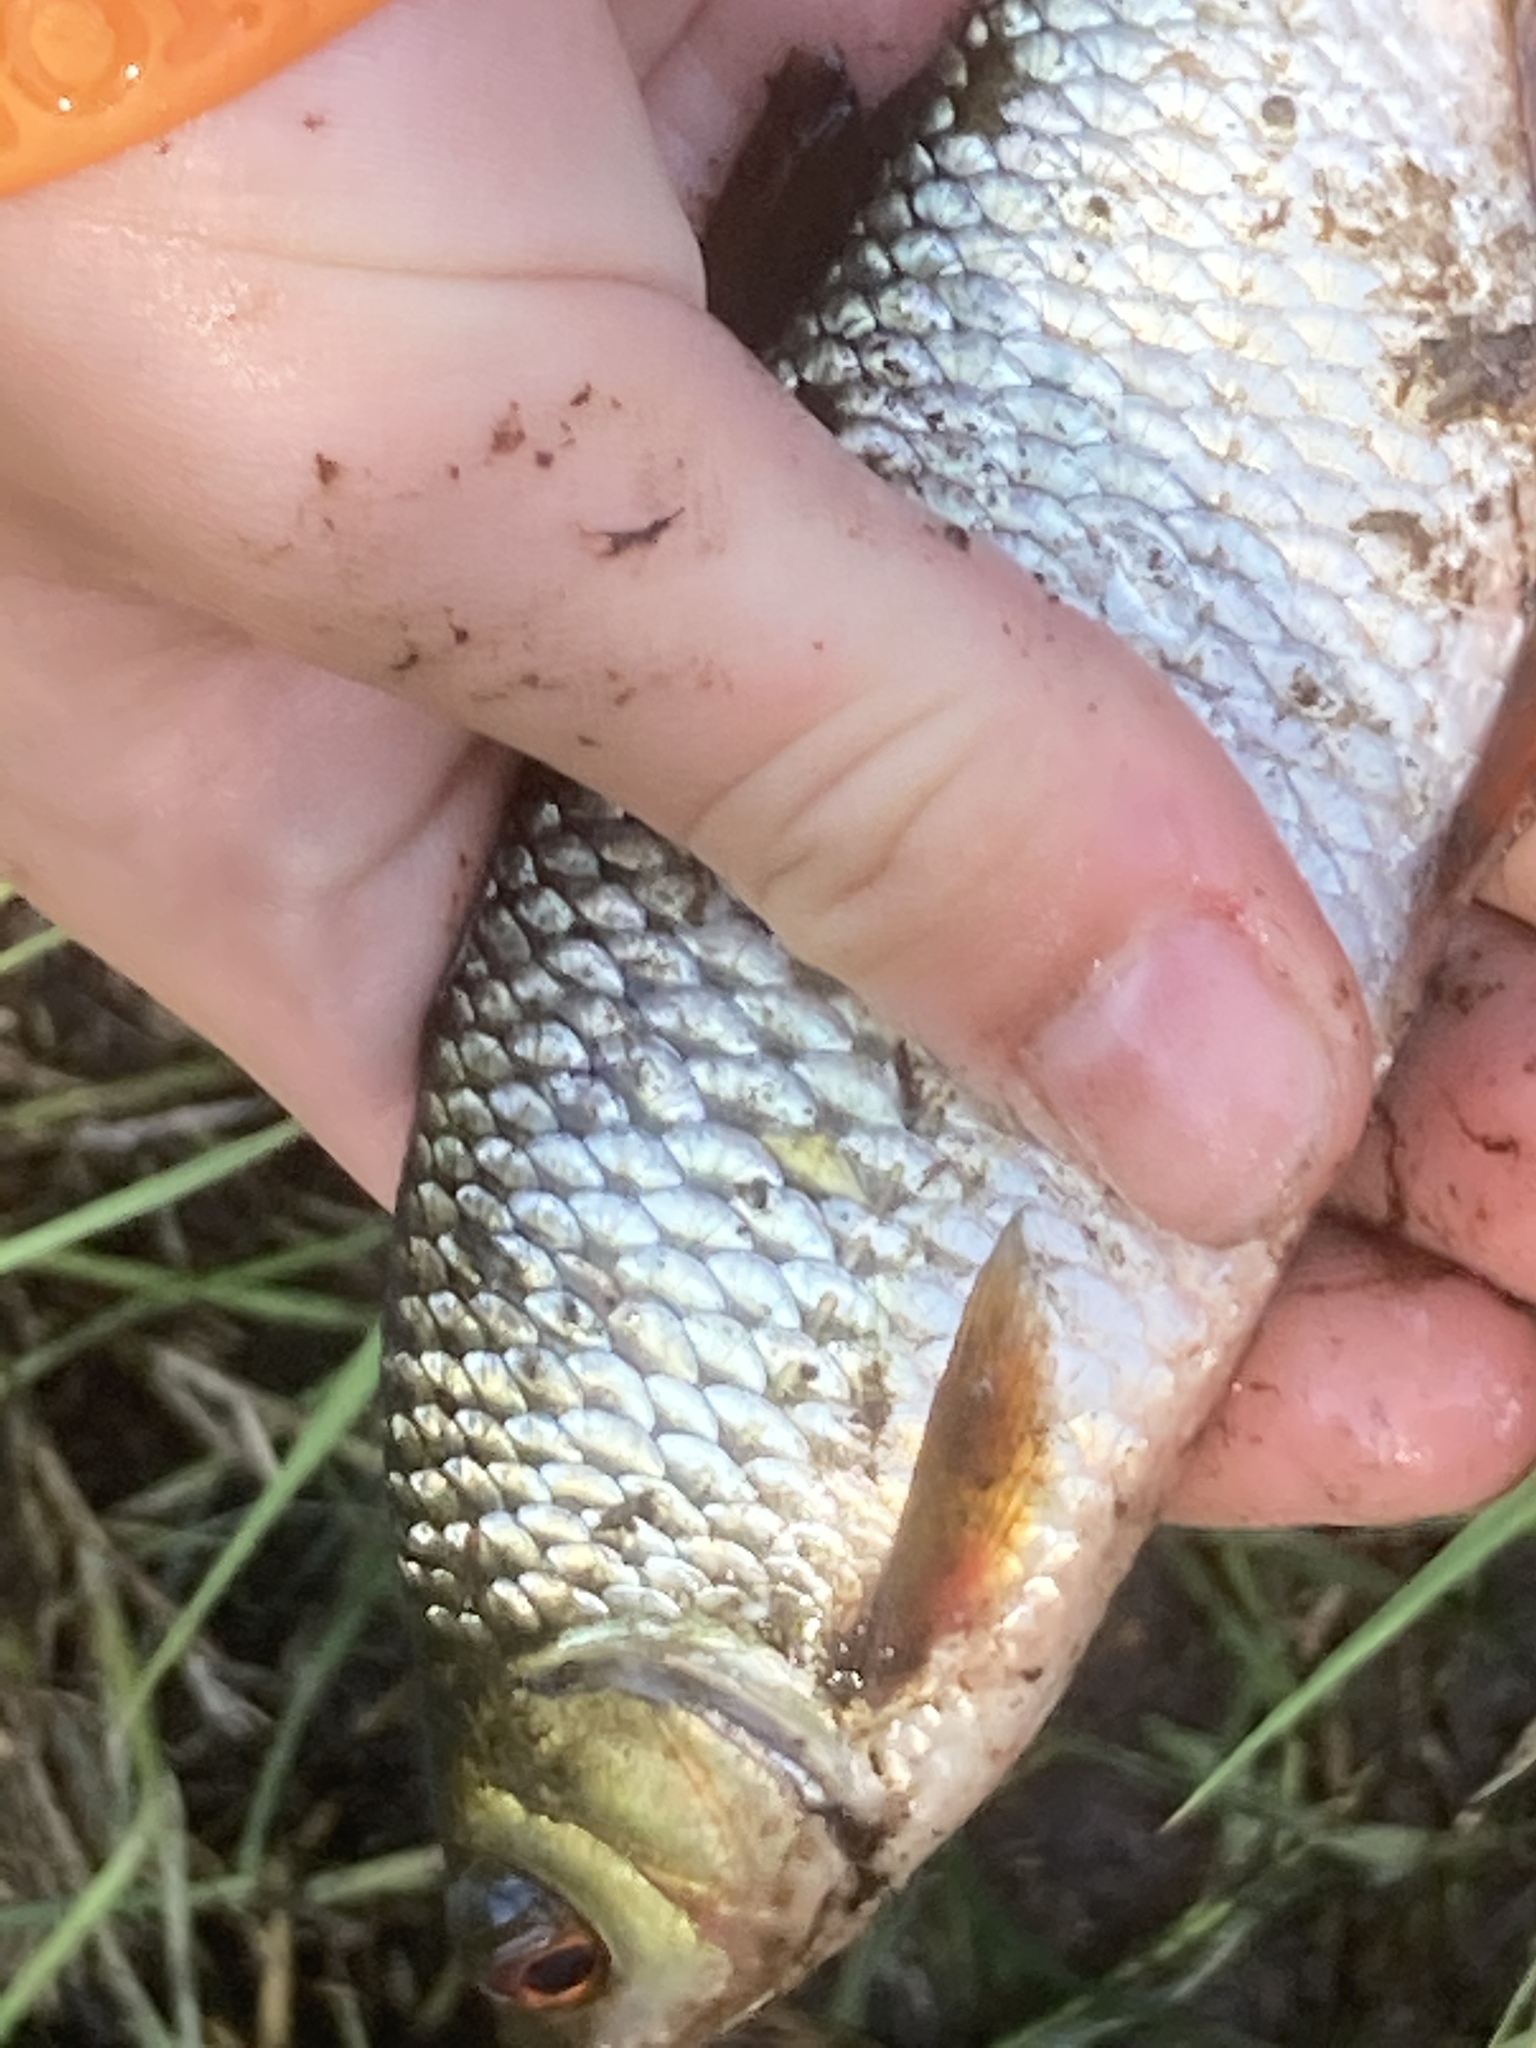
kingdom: Animalia
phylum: Chordata
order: Cypriniformes
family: Cyprinidae
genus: Rutilus
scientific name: Rutilus rutilus
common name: Roach
